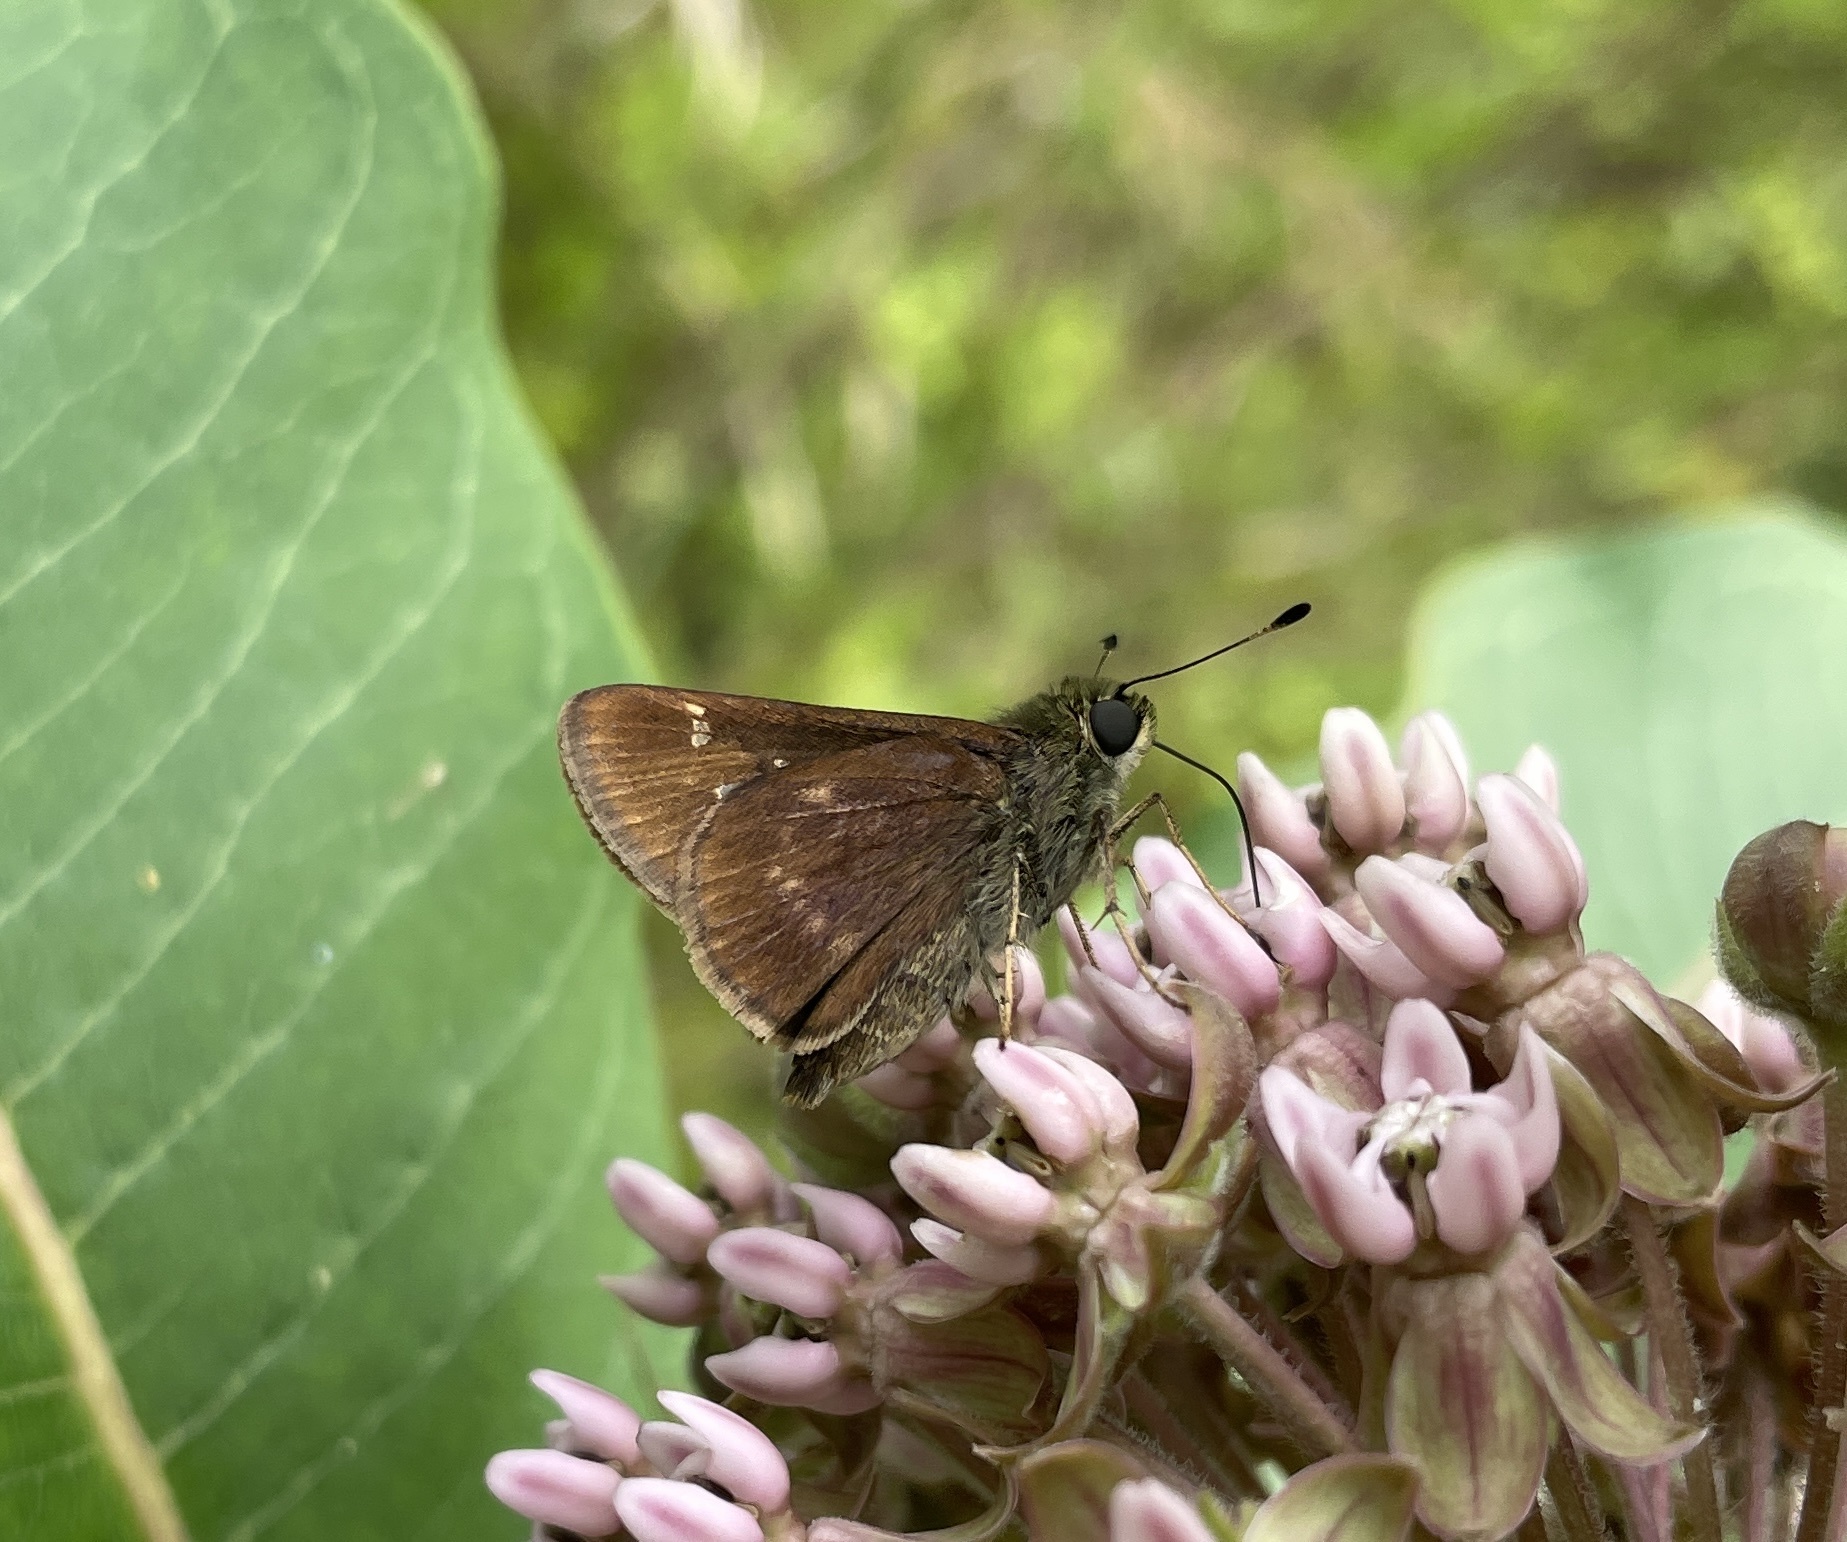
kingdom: Animalia
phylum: Arthropoda
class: Insecta
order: Lepidoptera
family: Hesperiidae
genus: Vernia
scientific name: Vernia verna
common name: Little glassywing
